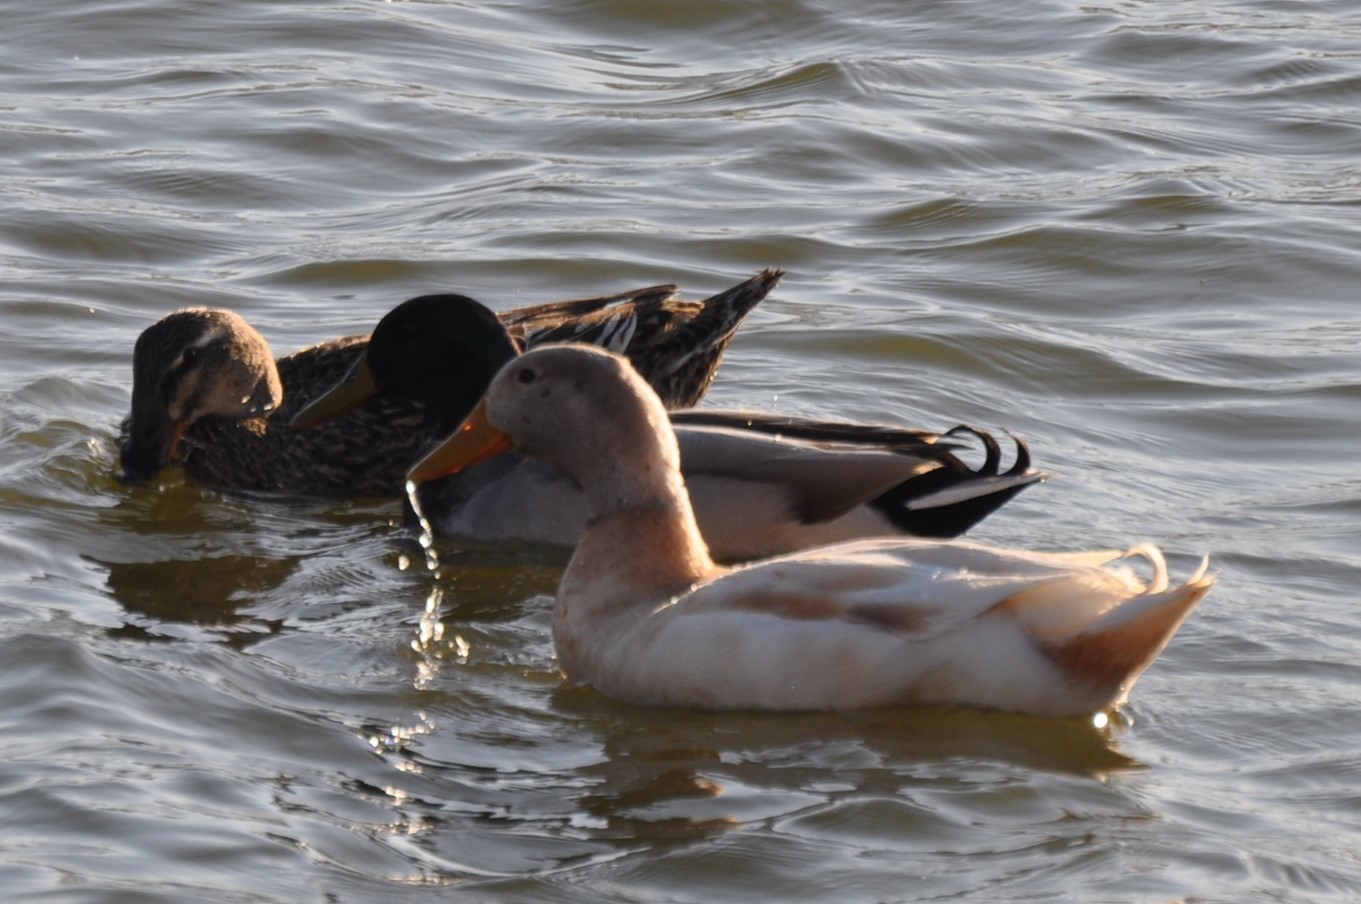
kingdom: Animalia
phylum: Chordata
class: Aves
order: Anseriformes
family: Anatidae
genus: Anas
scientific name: Anas platyrhynchos
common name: Mallard
